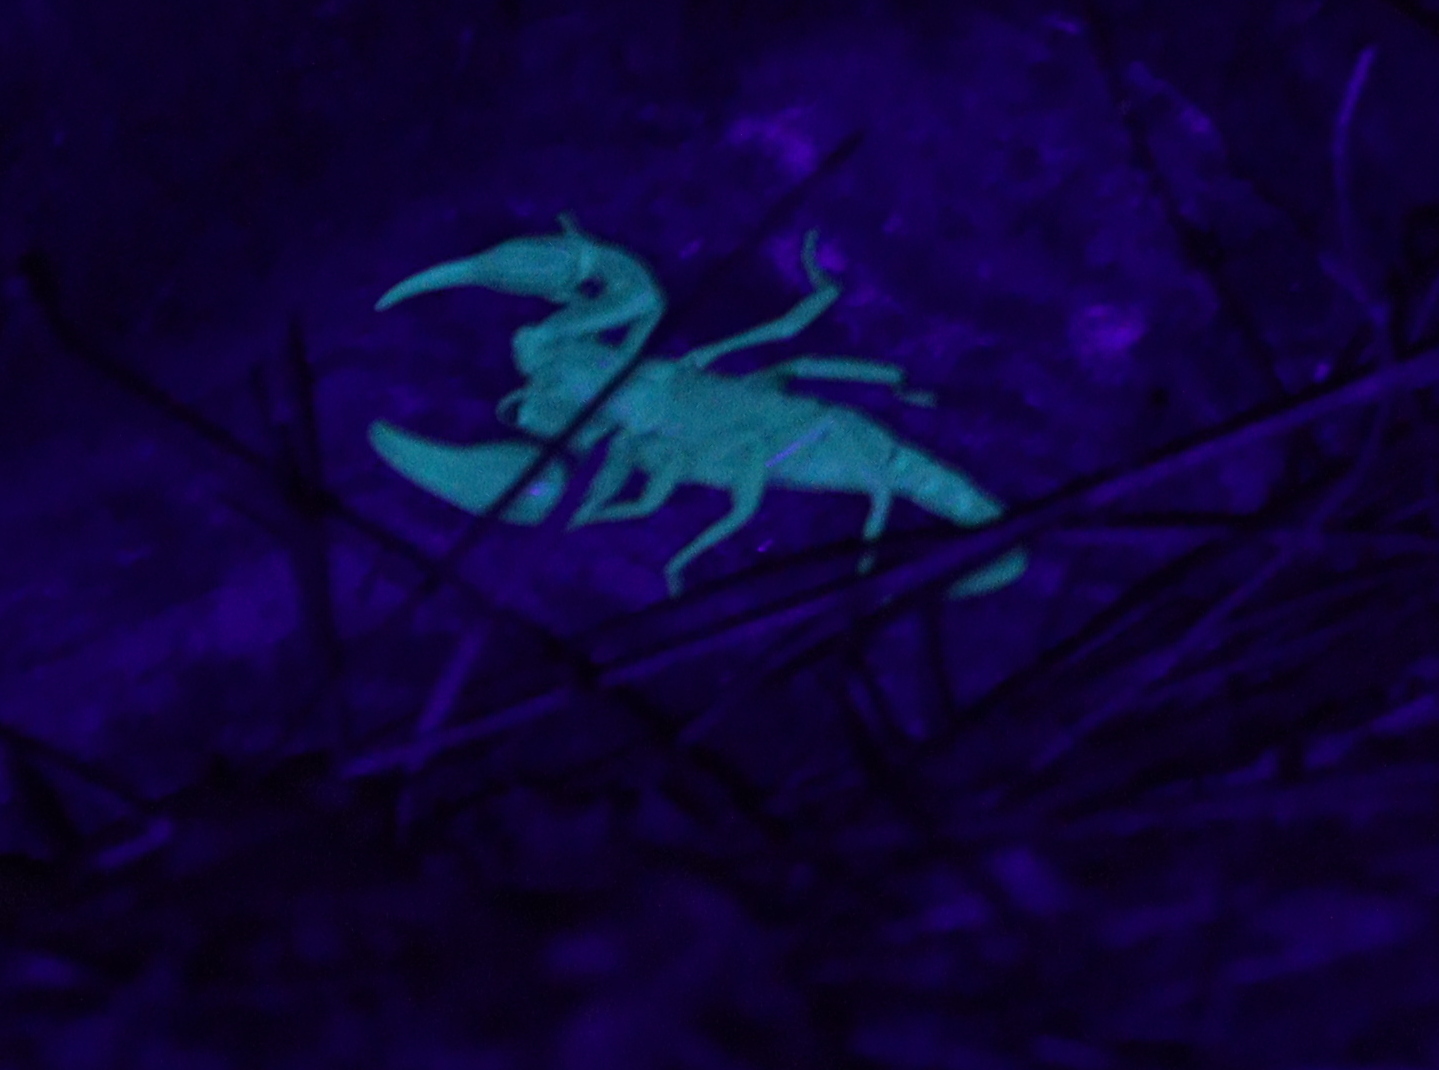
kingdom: Animalia
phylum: Arthropoda
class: Arachnida
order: Scorpiones
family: Iuridae
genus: Anatoliurus
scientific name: Anatoliurus kraepelini
